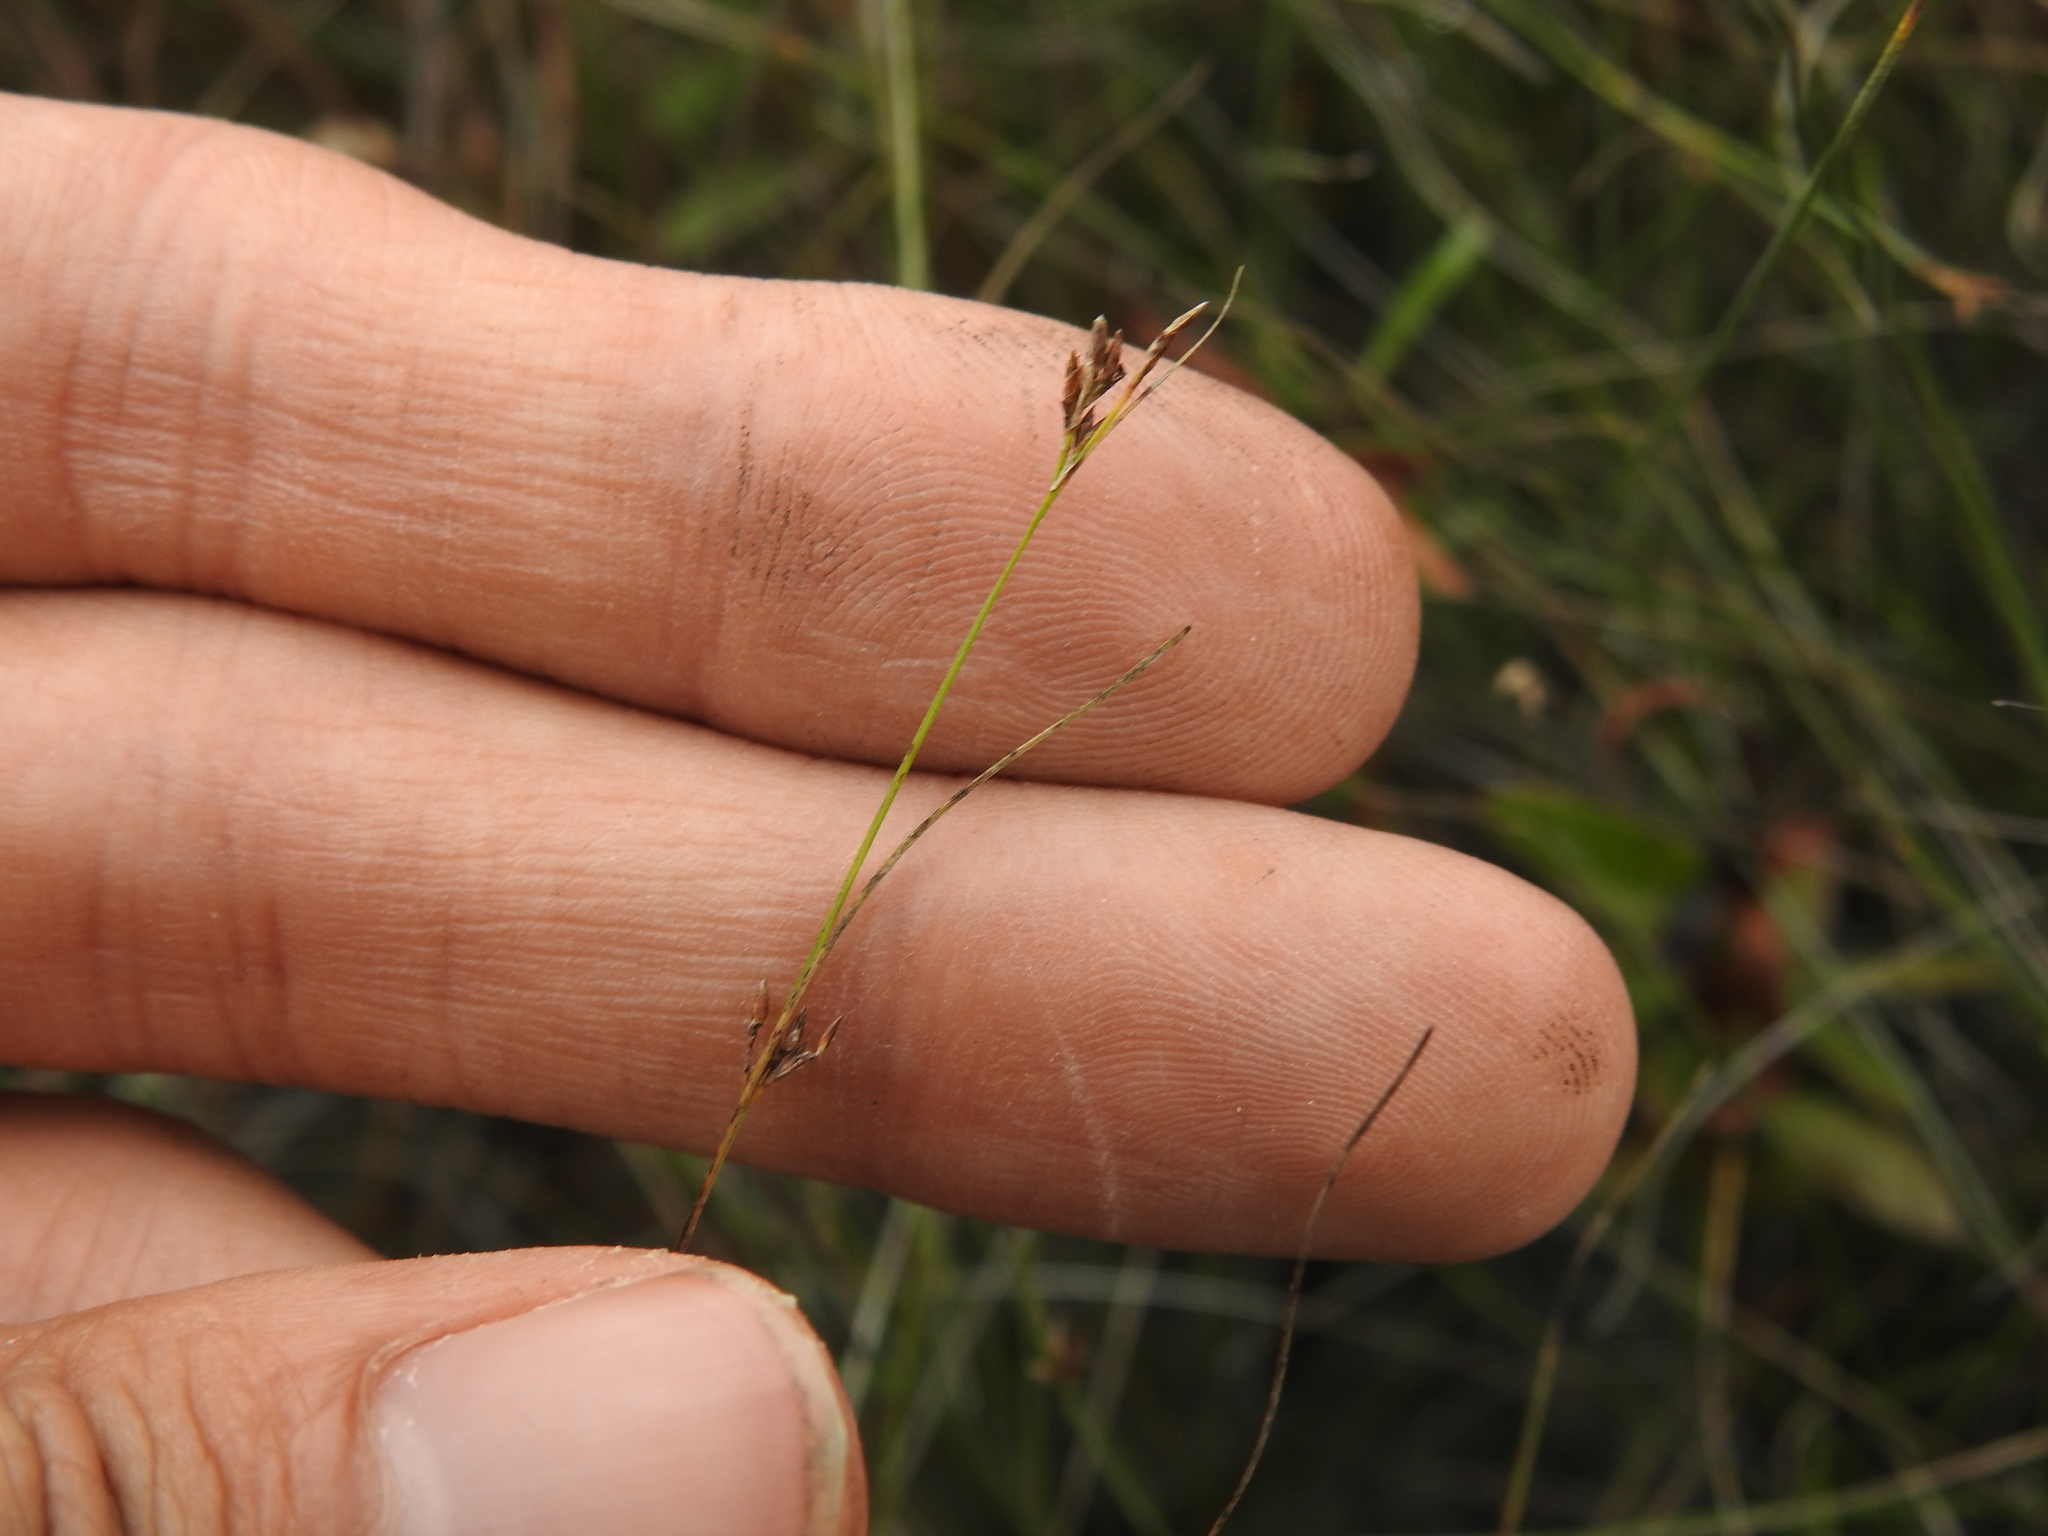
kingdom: Plantae
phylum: Tracheophyta
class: Liliopsida
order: Poales
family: Cyperaceae
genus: Rhynchospora
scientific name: Rhynchospora divergens
